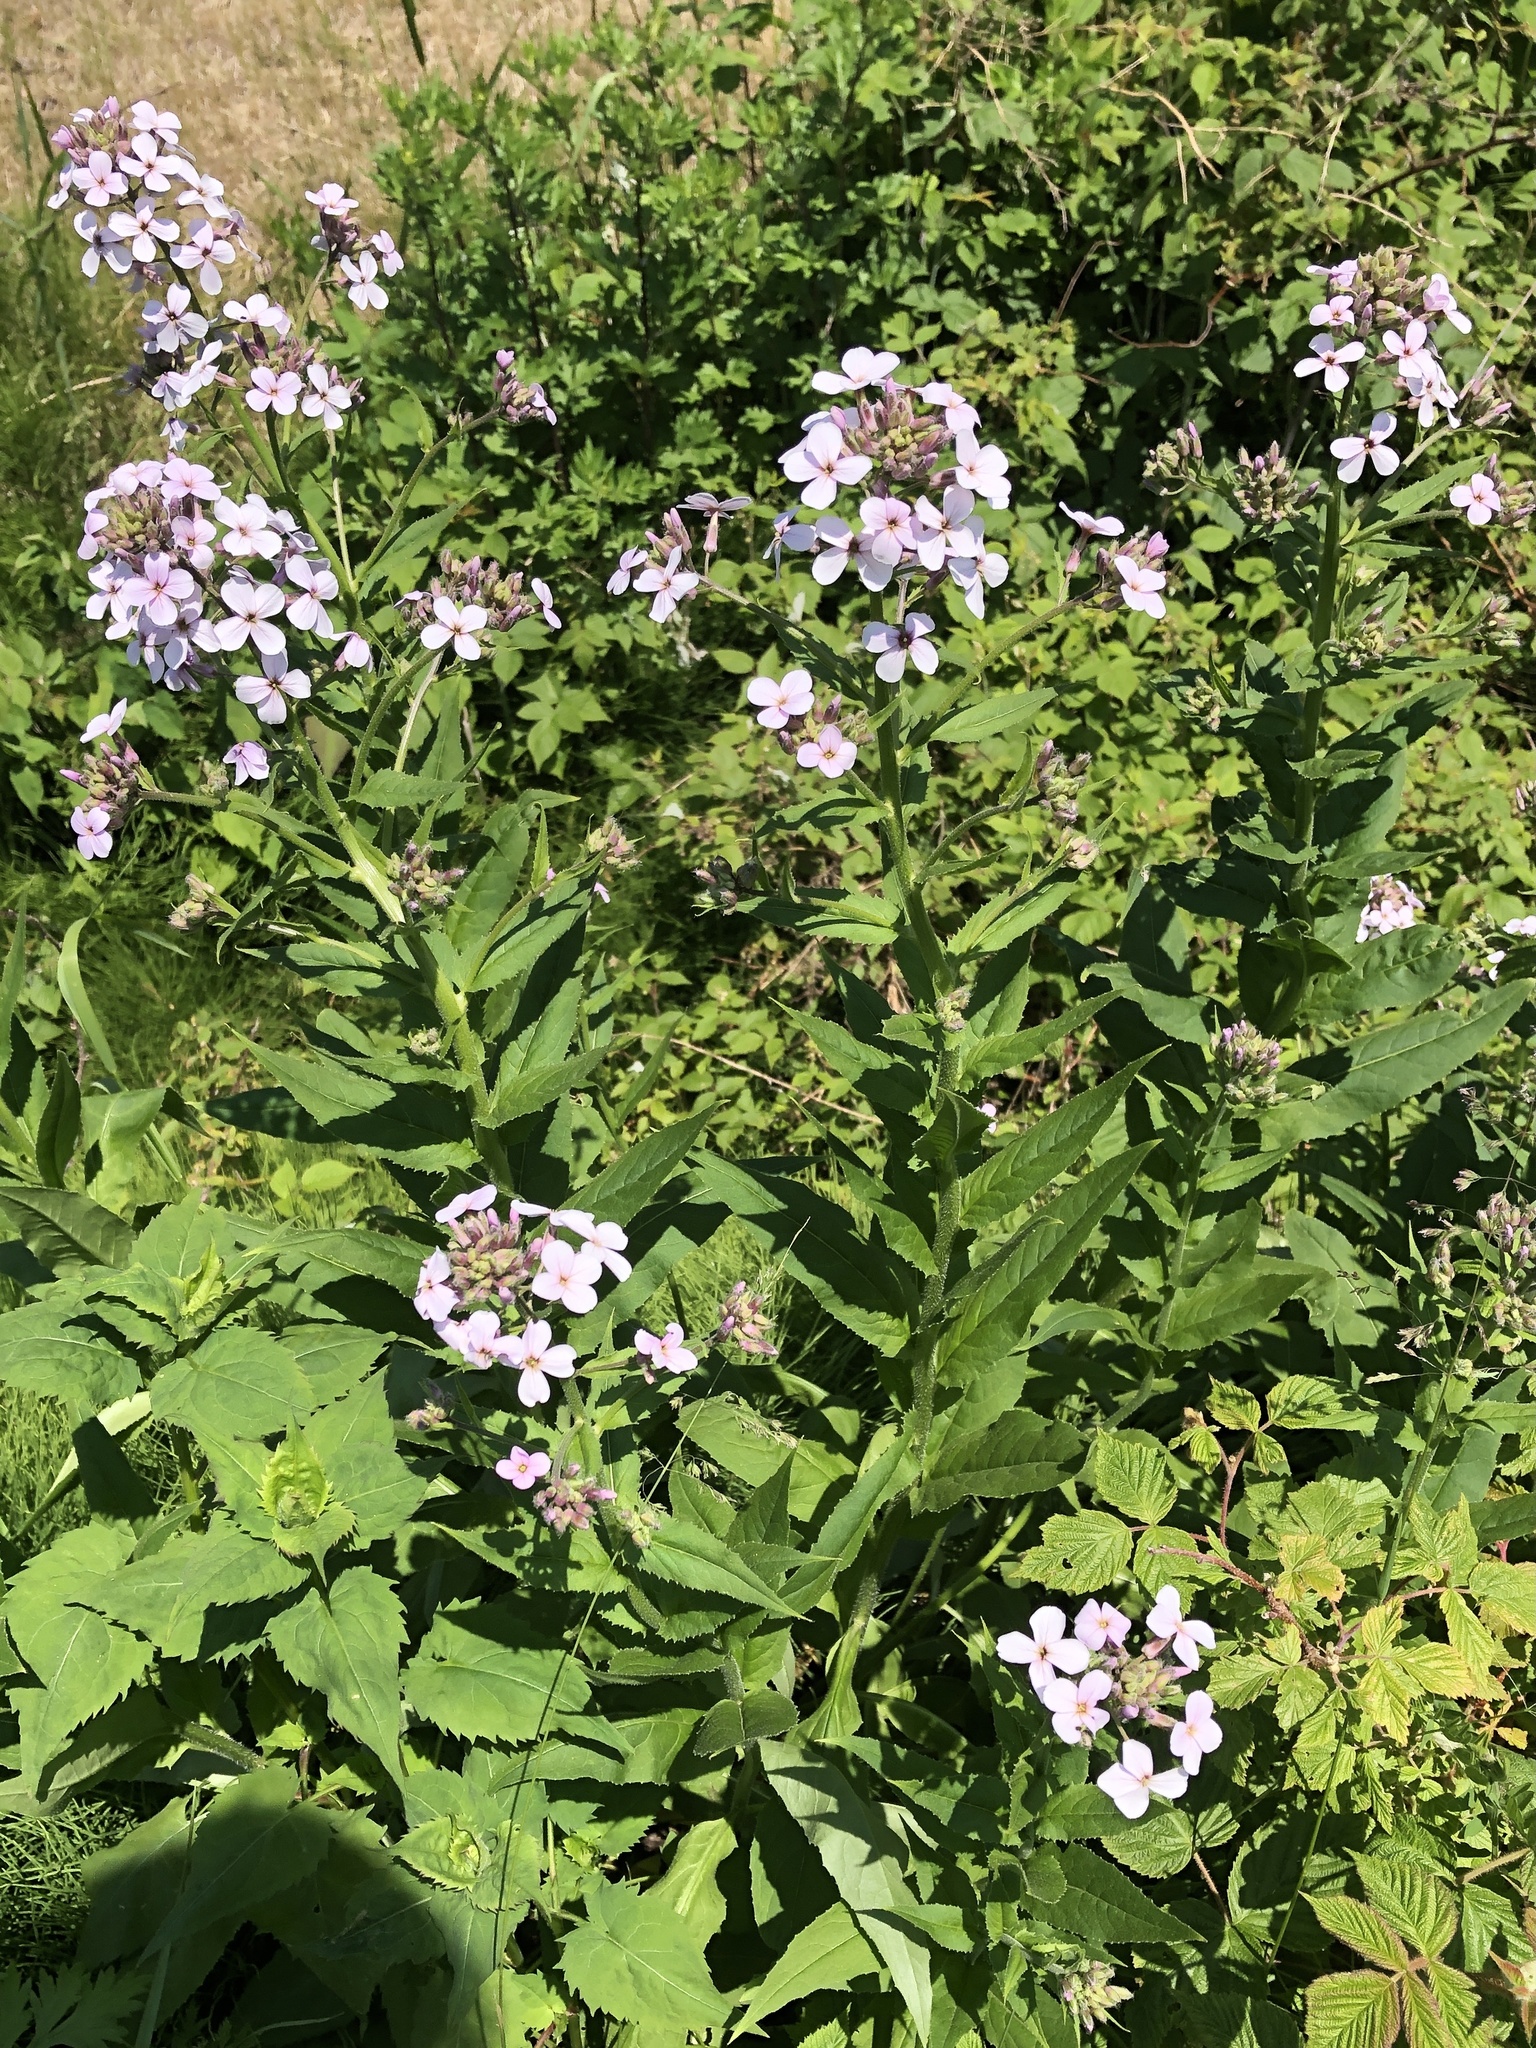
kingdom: Plantae
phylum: Tracheophyta
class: Magnoliopsida
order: Brassicales
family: Brassicaceae
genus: Hesperis
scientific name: Hesperis matronalis
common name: Dame's-violet
